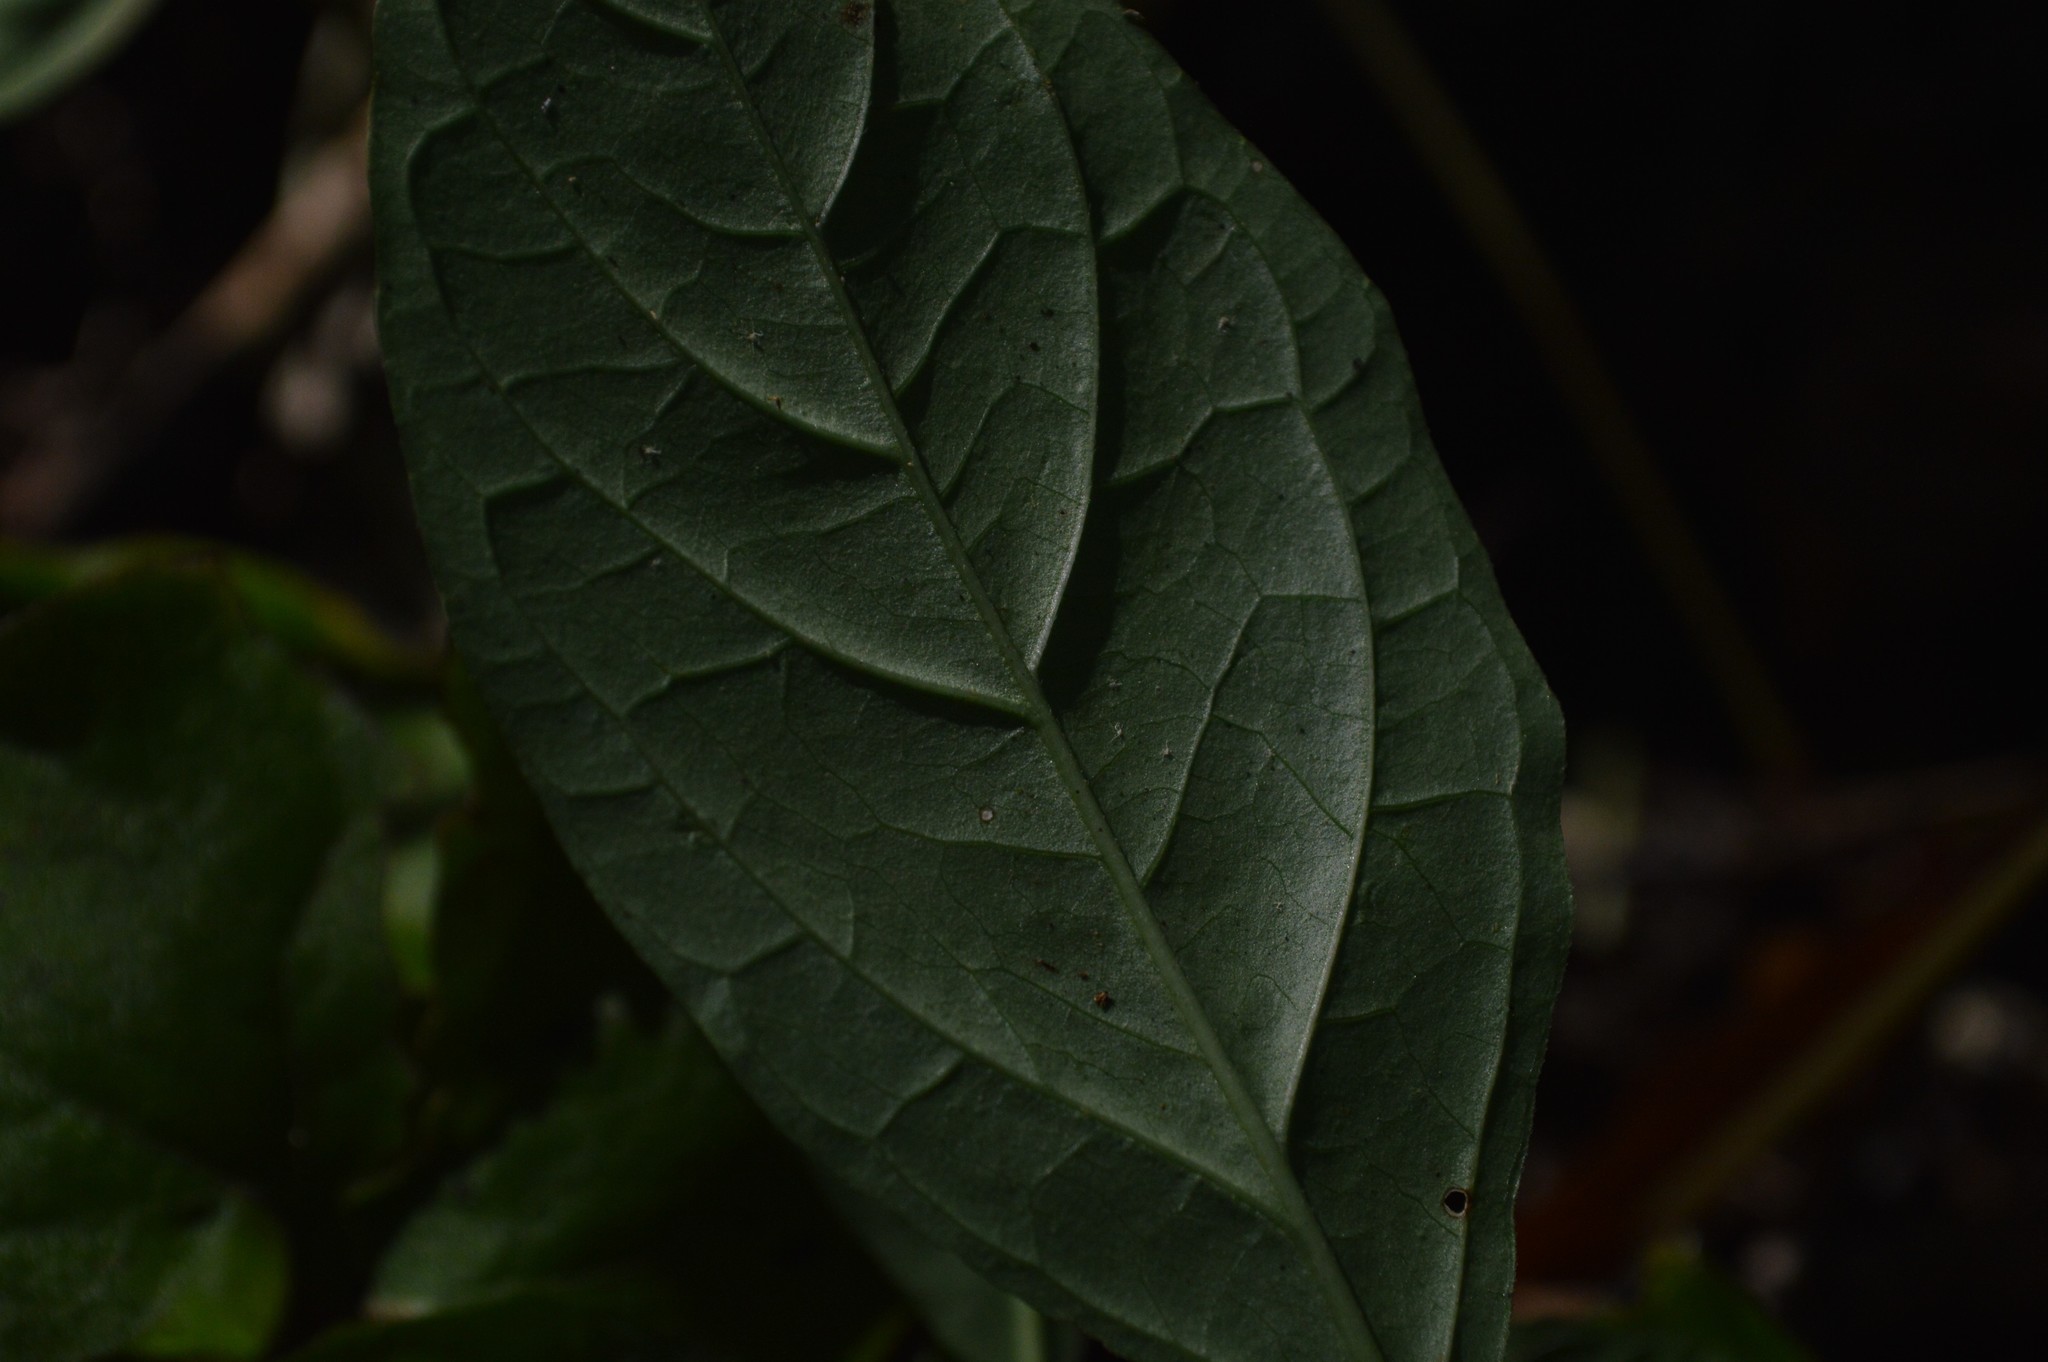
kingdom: Plantae
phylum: Tracheophyta
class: Magnoliopsida
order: Lamiales
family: Acanthaceae
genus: Yeatesia
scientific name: Yeatesia viridiflora
